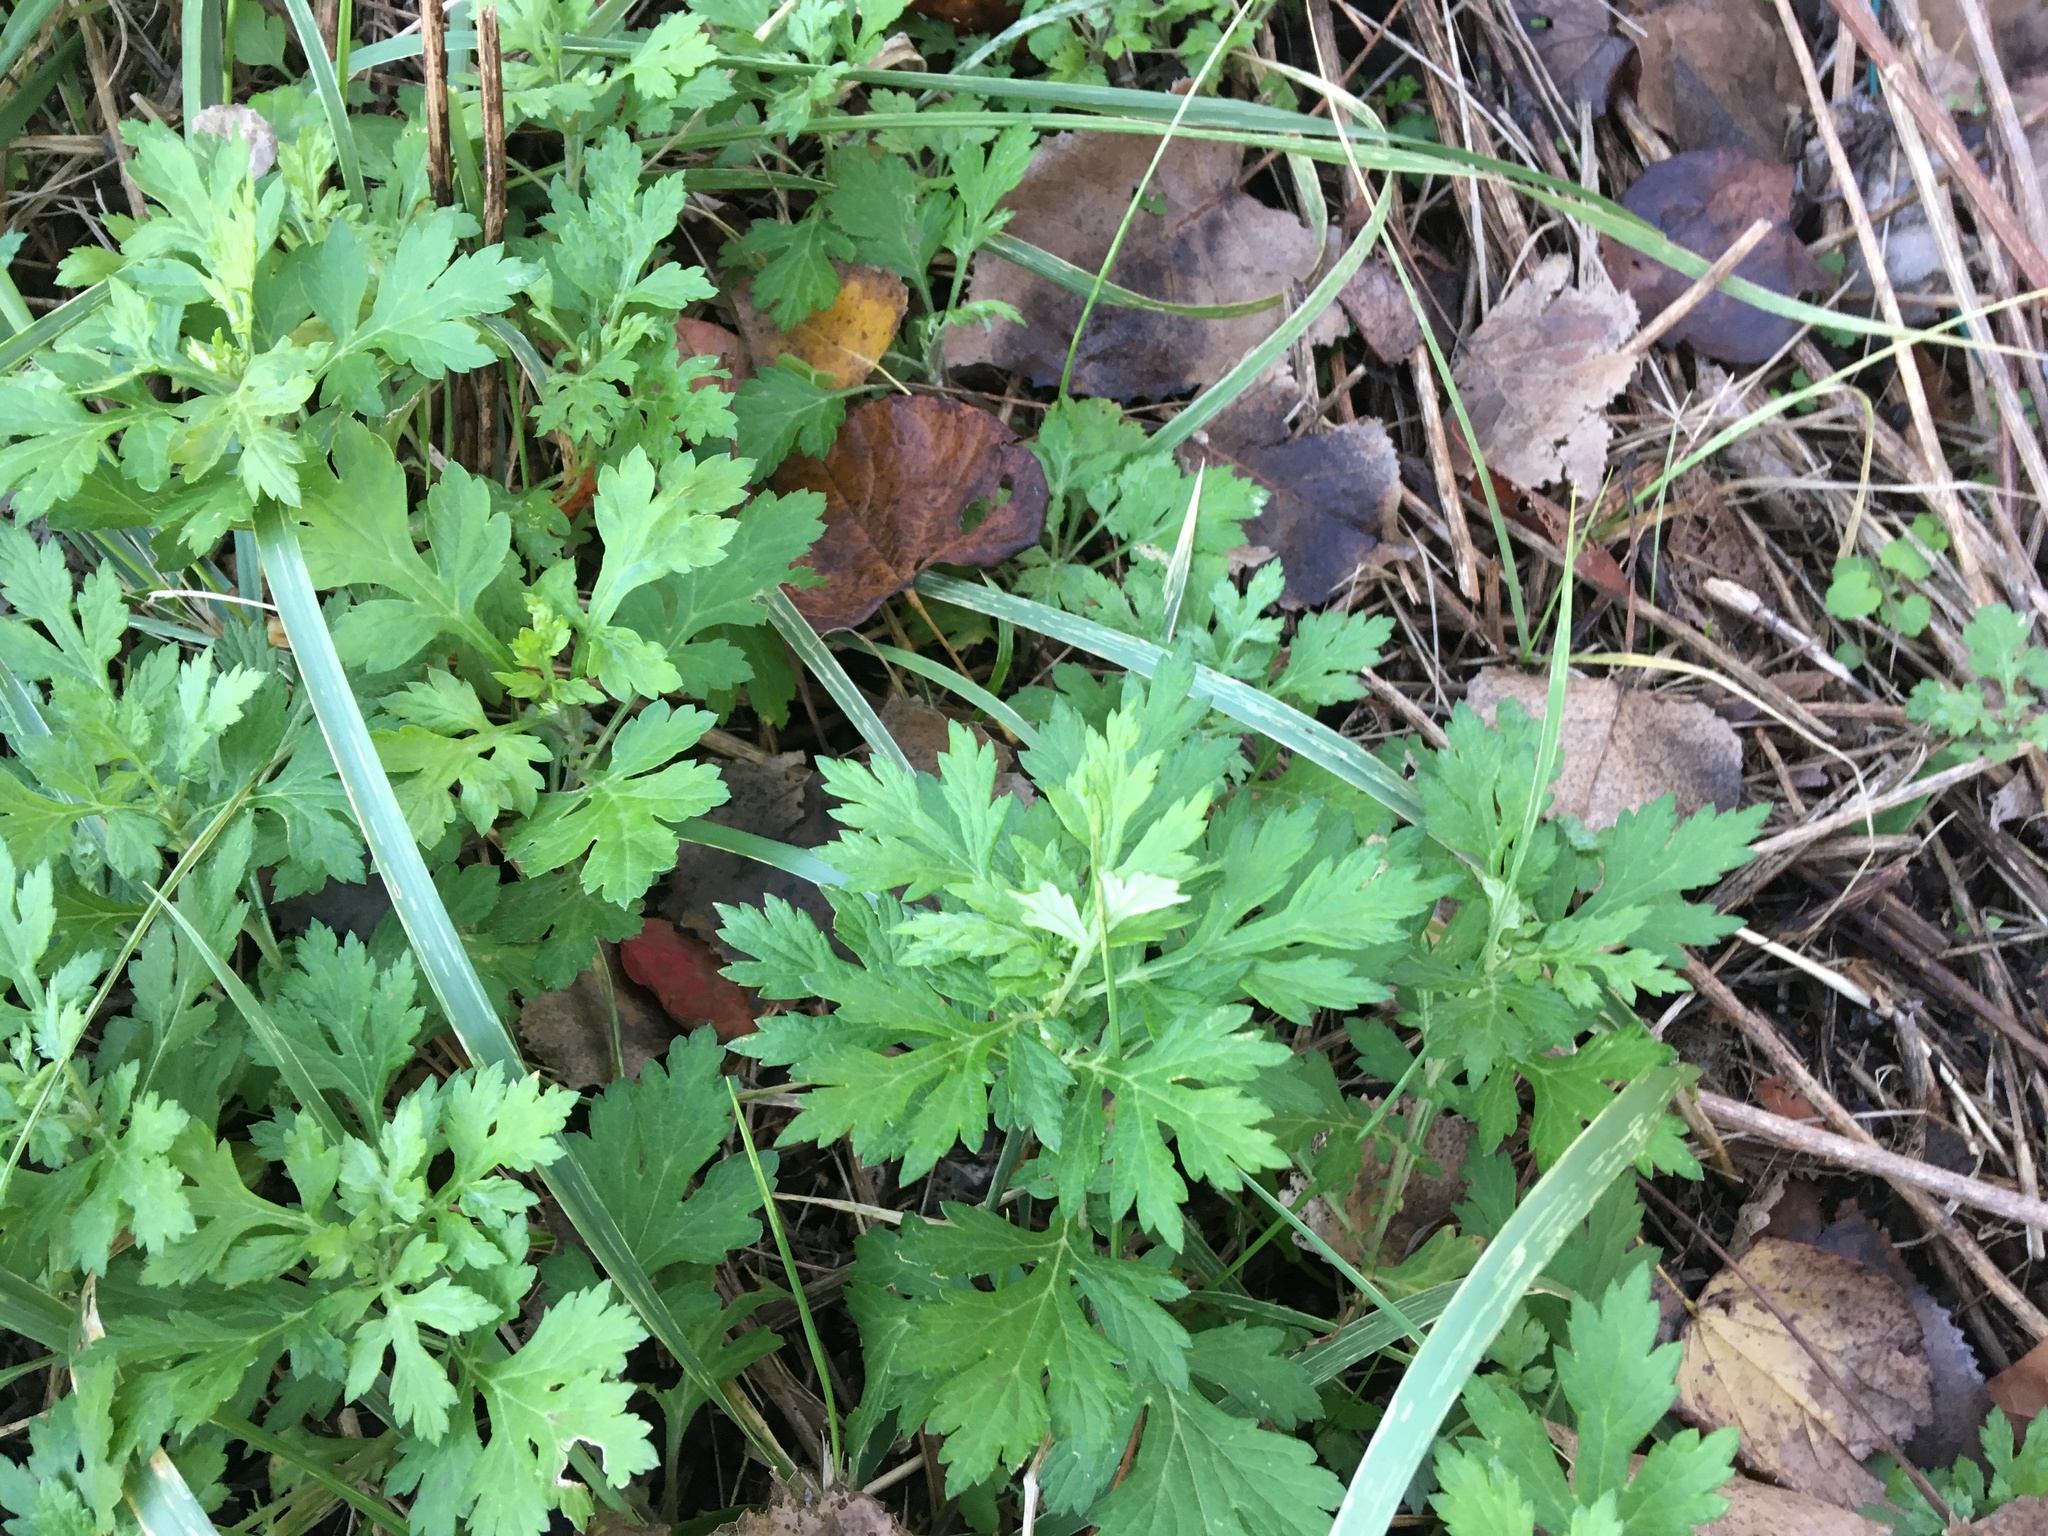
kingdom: Plantae
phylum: Tracheophyta
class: Magnoliopsida
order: Asterales
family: Asteraceae
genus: Artemisia
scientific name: Artemisia vulgaris
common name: Mugwort
